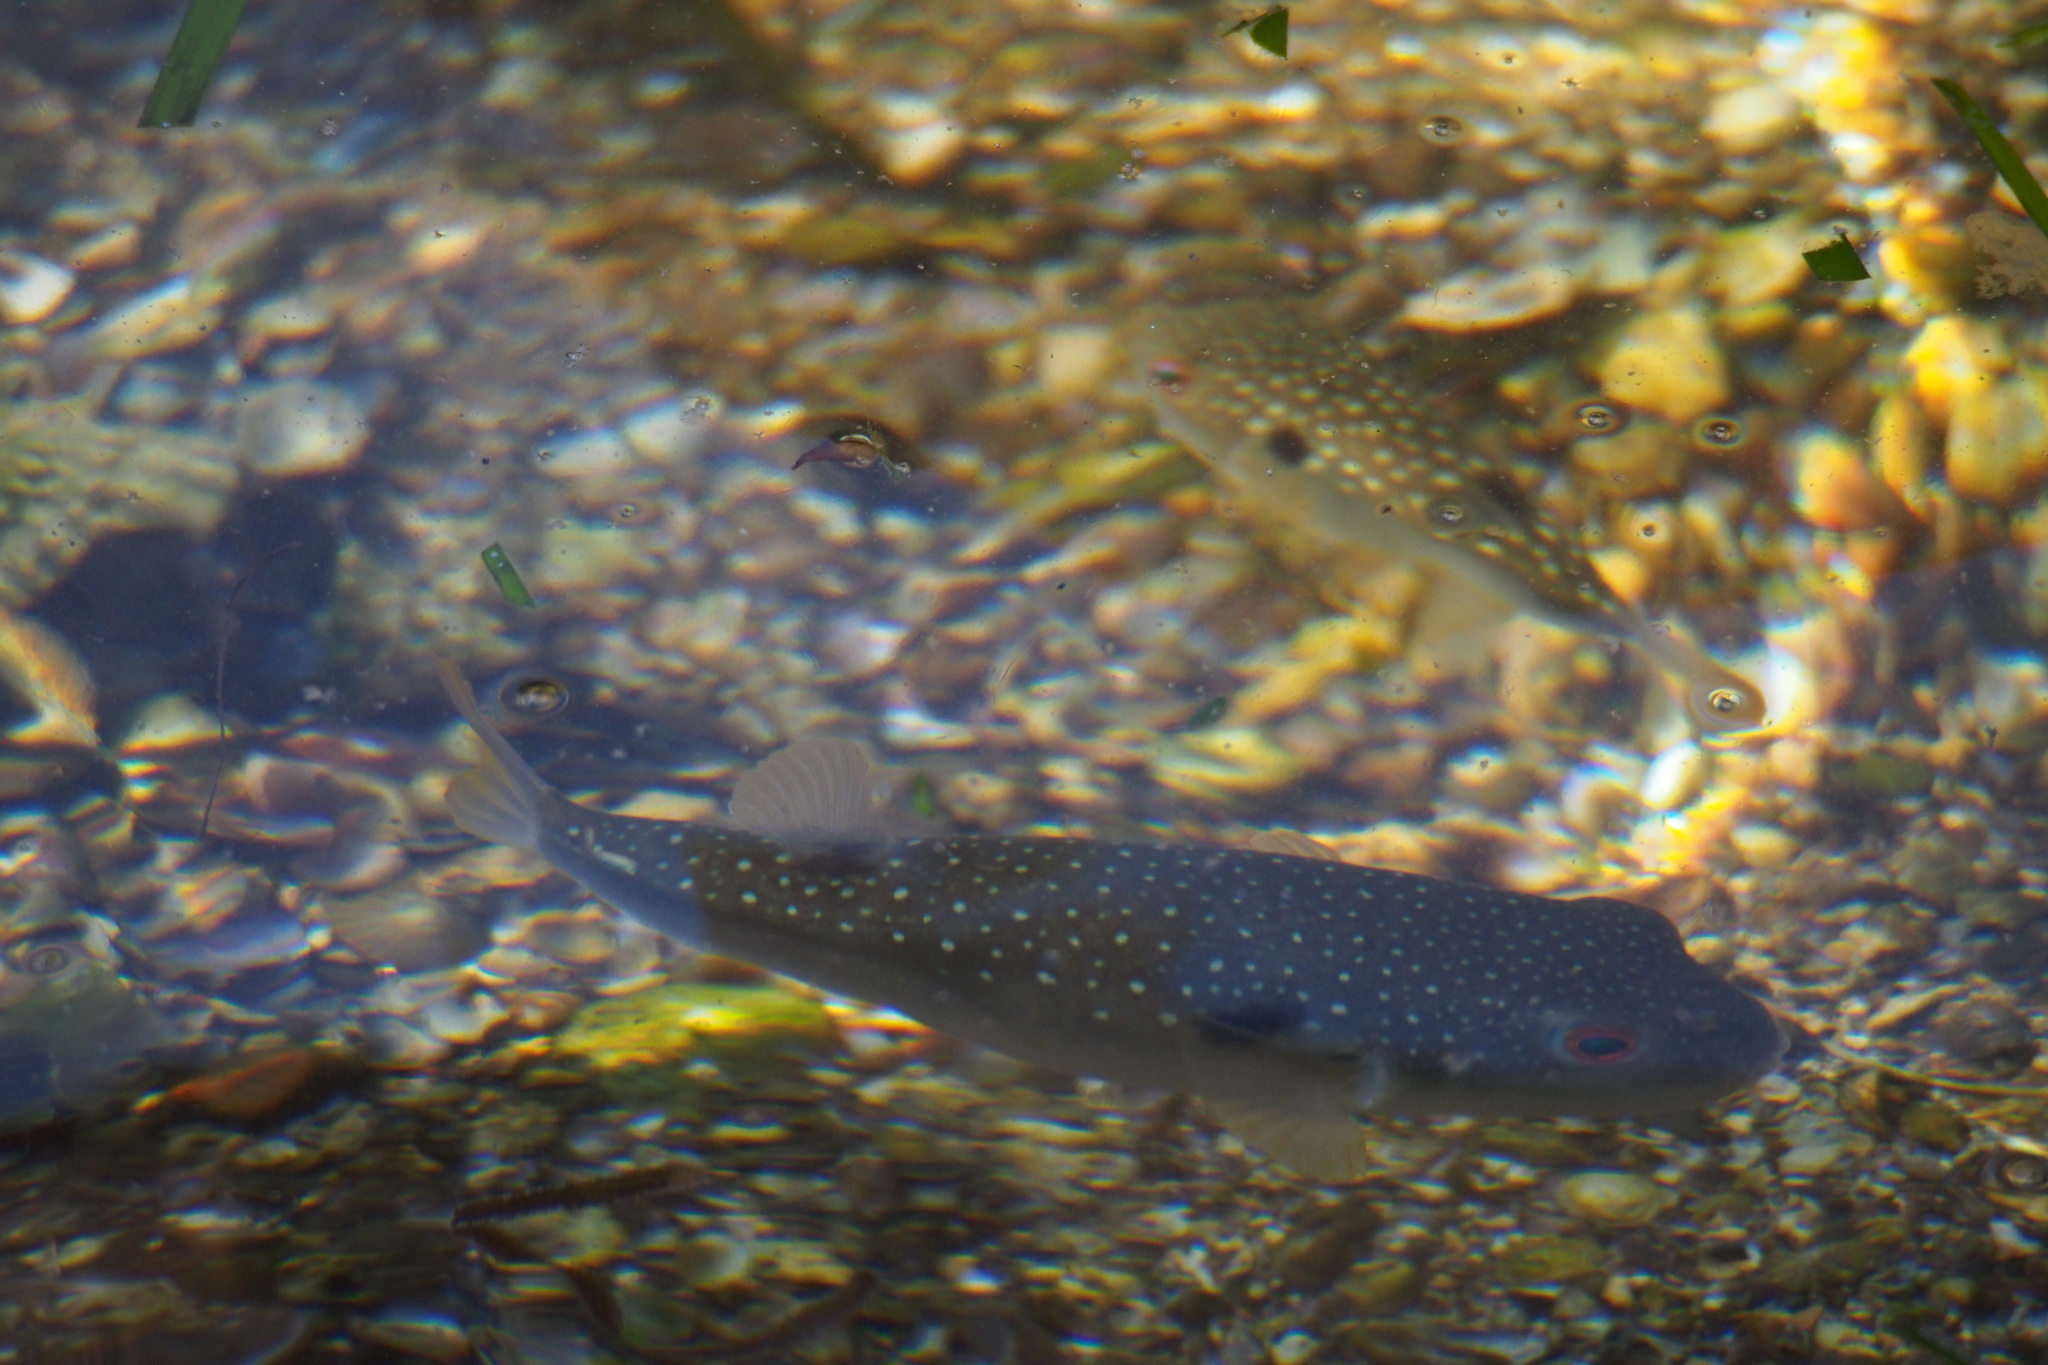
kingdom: Animalia
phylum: Chordata
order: Tetraodontiformes
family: Tetraodontidae
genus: Takifugu
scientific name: Takifugu alboplumbeus
